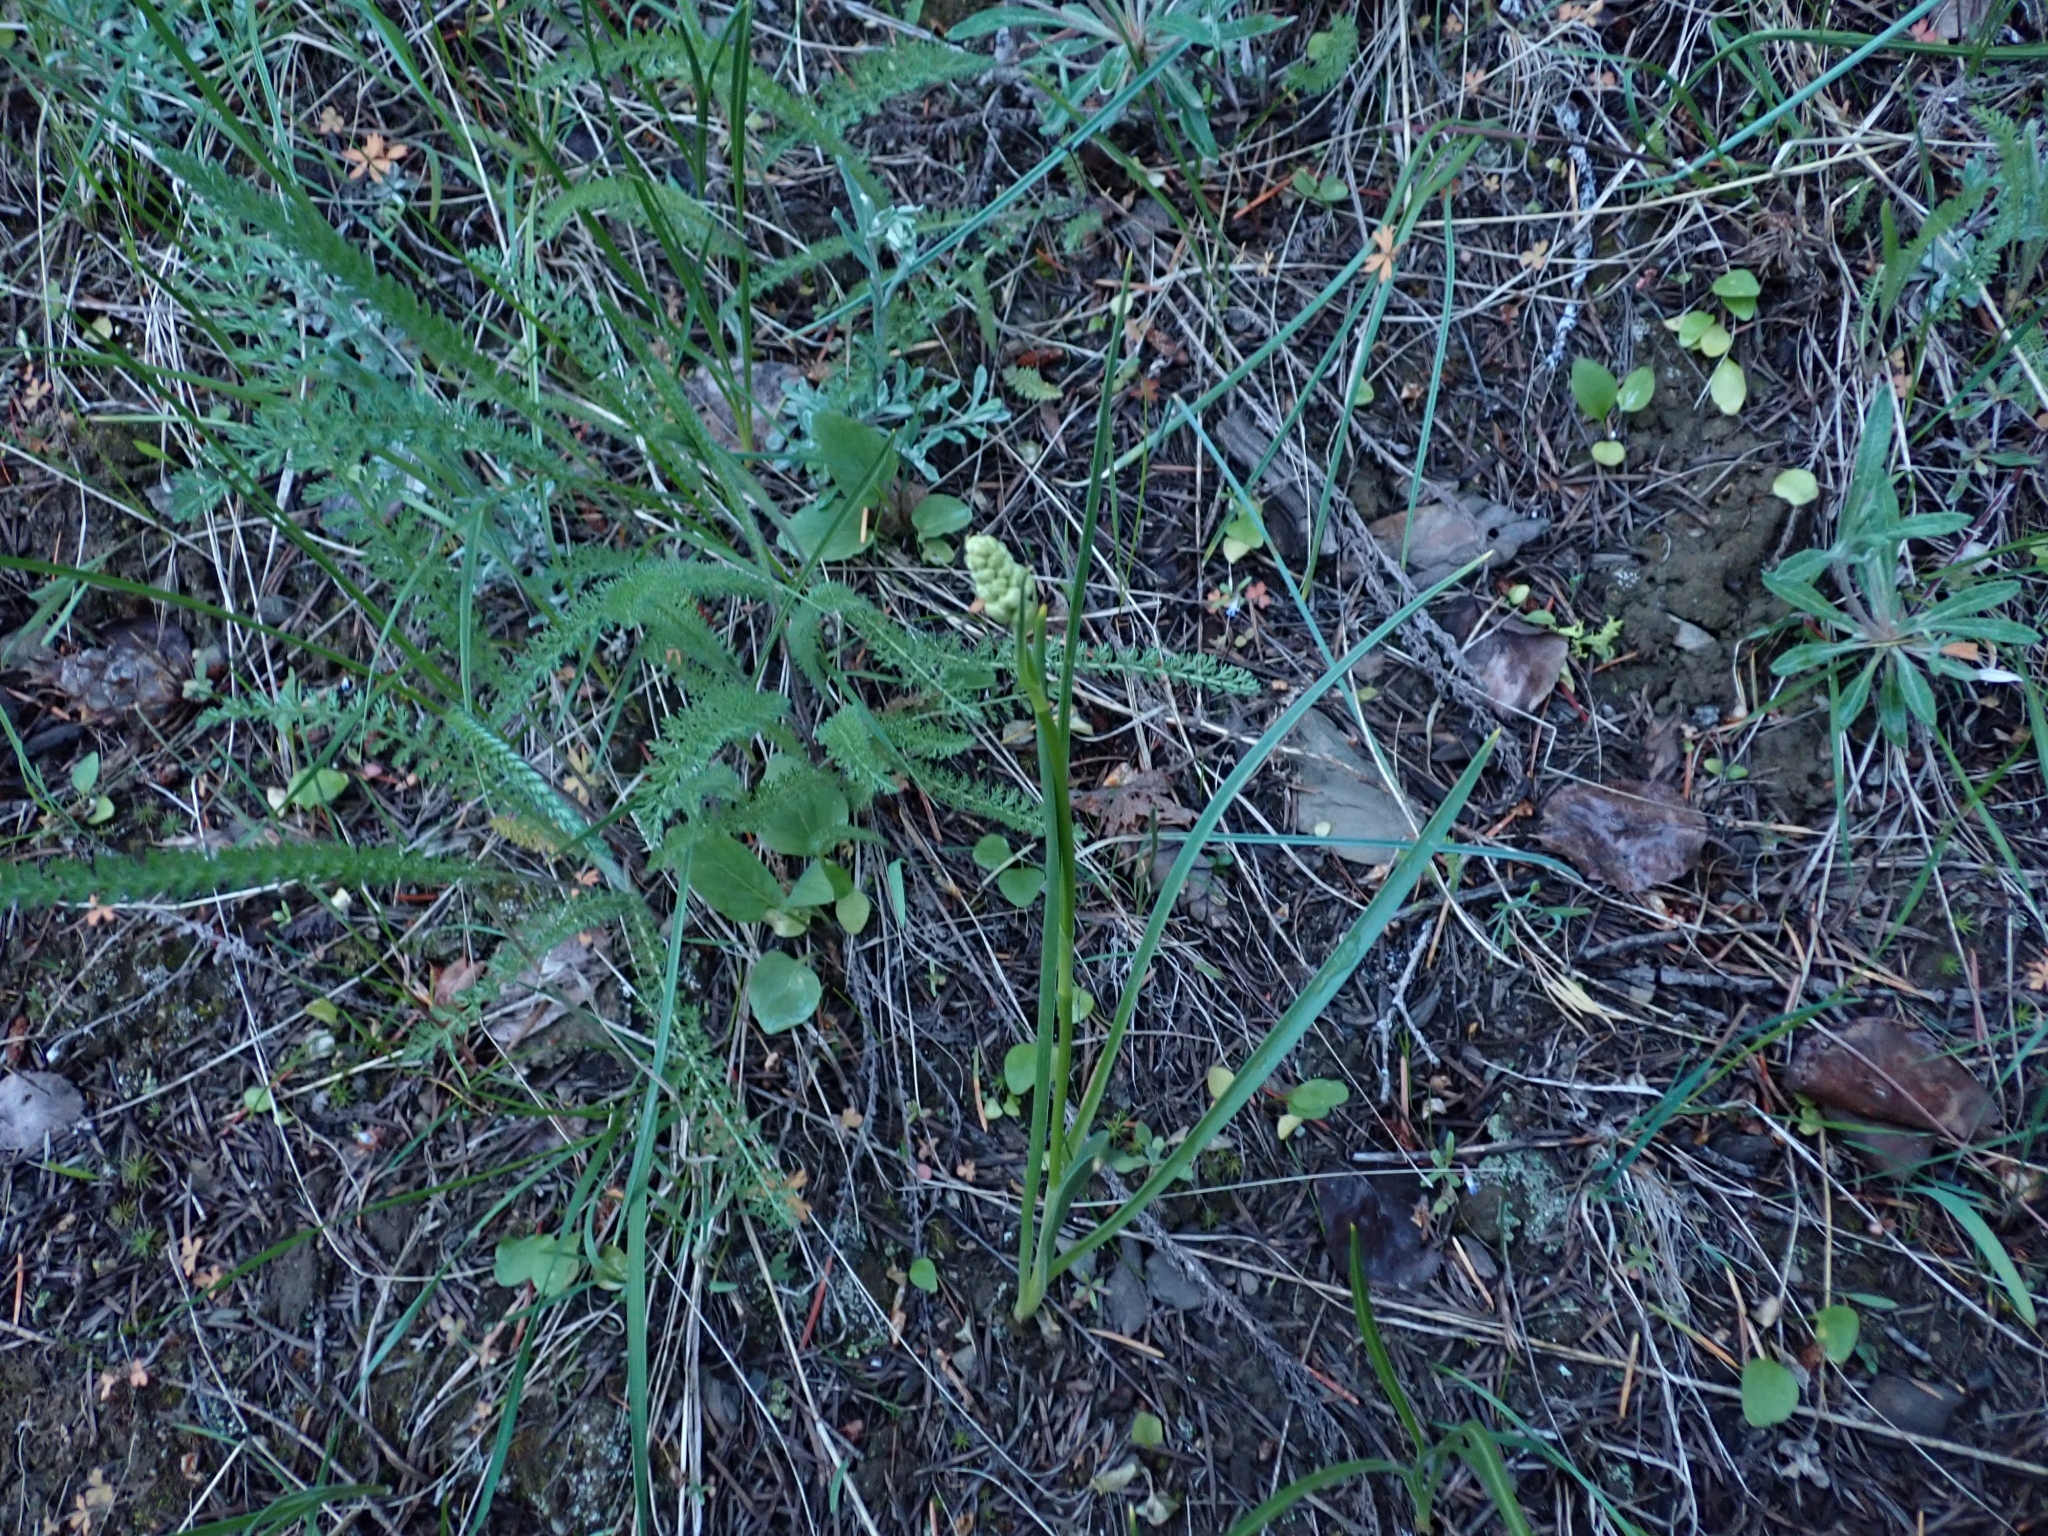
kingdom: Plantae
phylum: Tracheophyta
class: Liliopsida
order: Liliales
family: Melanthiaceae
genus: Toxicoscordion
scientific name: Toxicoscordion venenosum
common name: Meadow death camas
